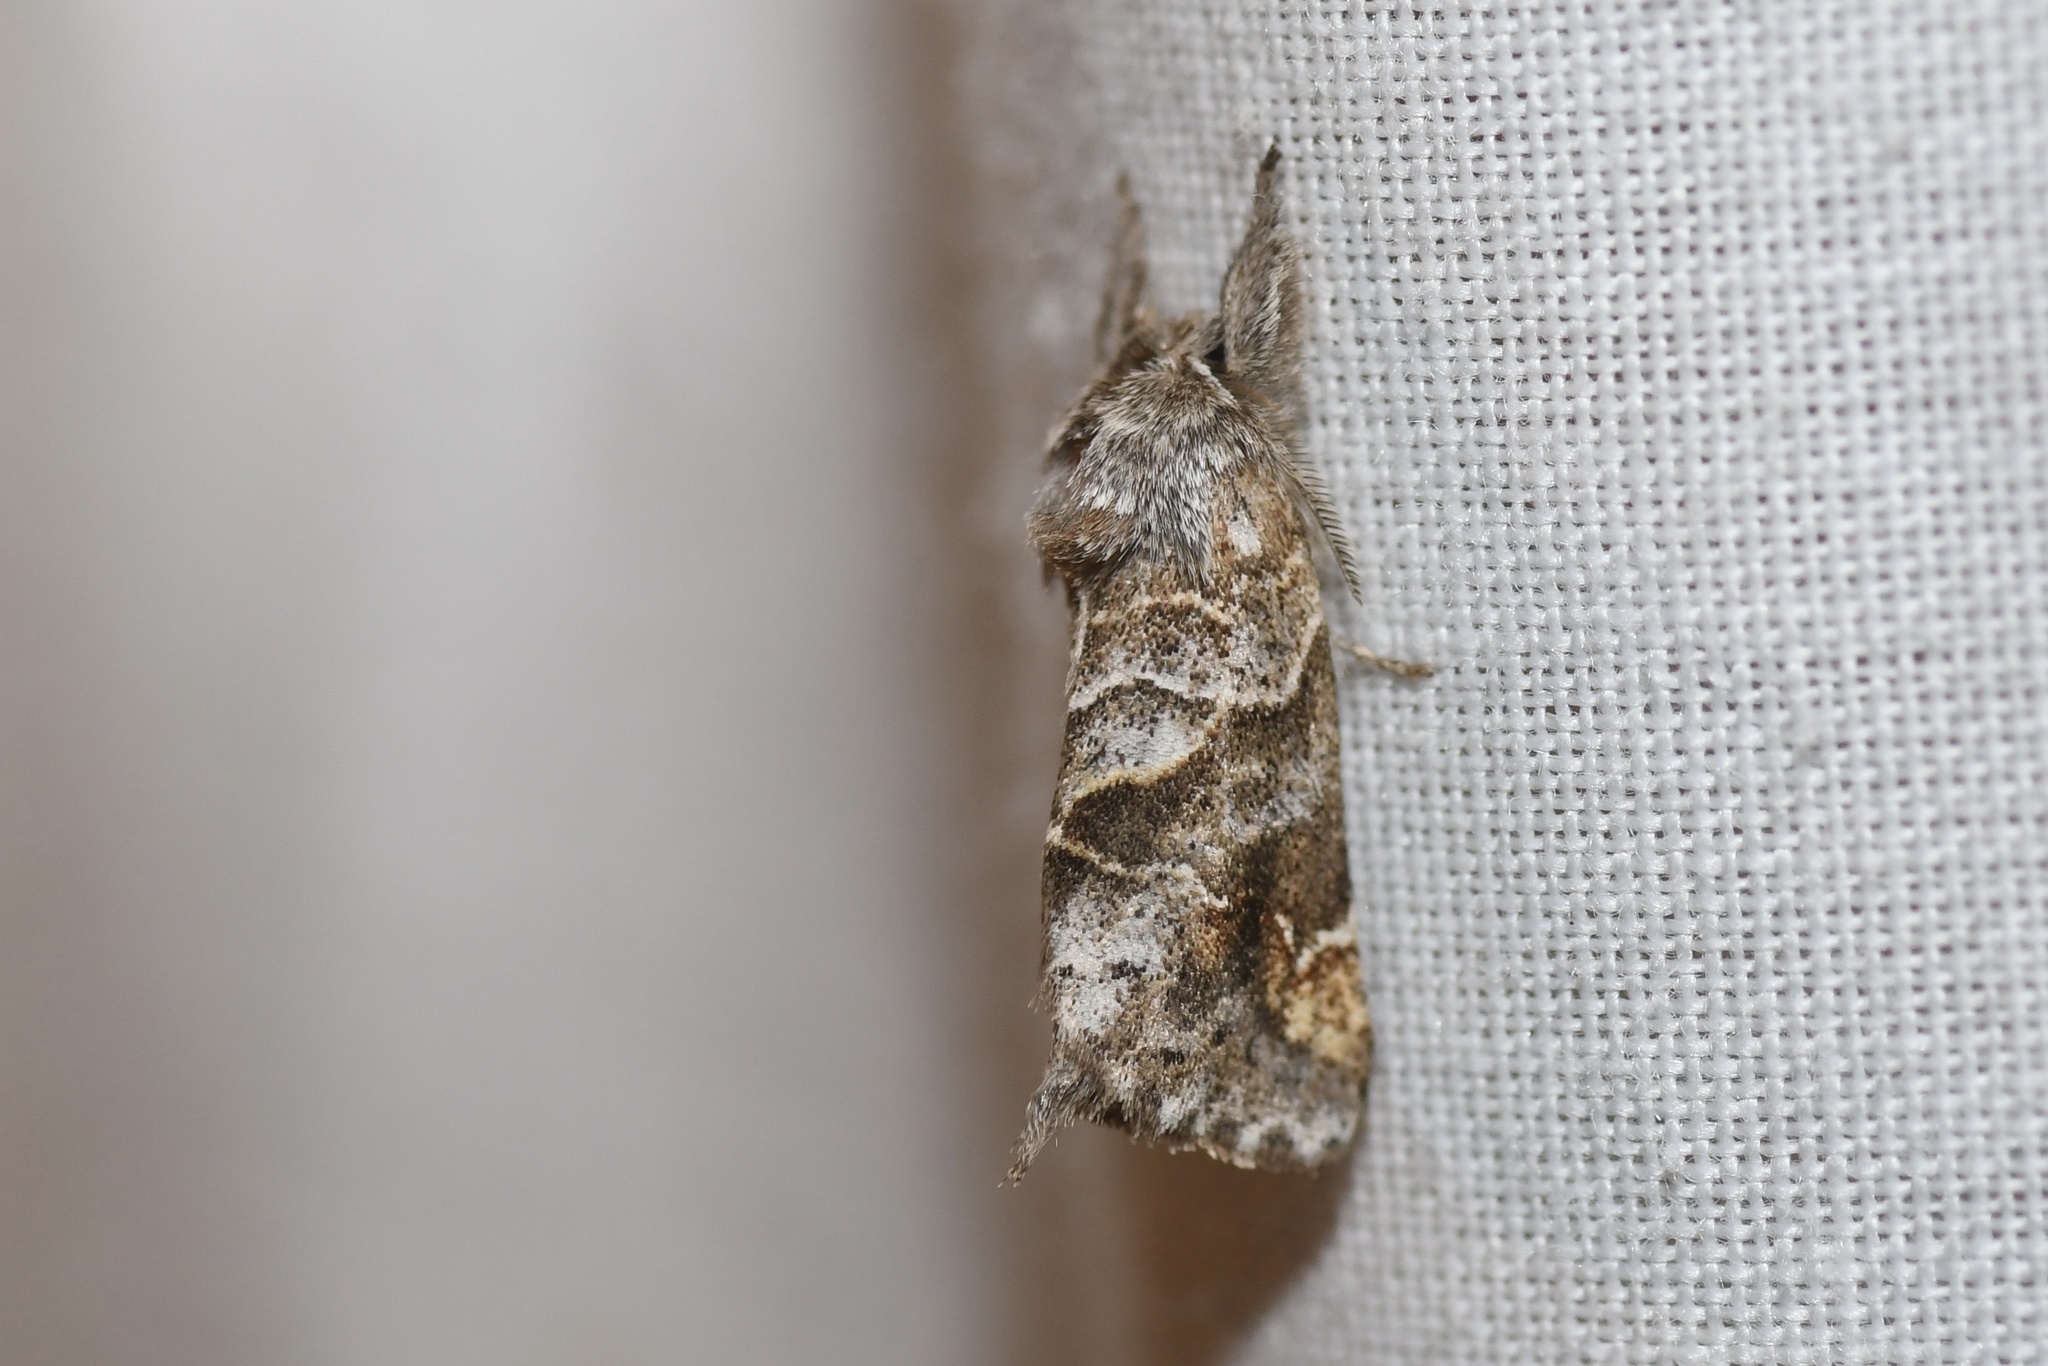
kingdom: Animalia
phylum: Arthropoda
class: Insecta
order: Lepidoptera
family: Notodontidae
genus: Clostera
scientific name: Clostera strigosa
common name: Striped chocolate-tip moth
